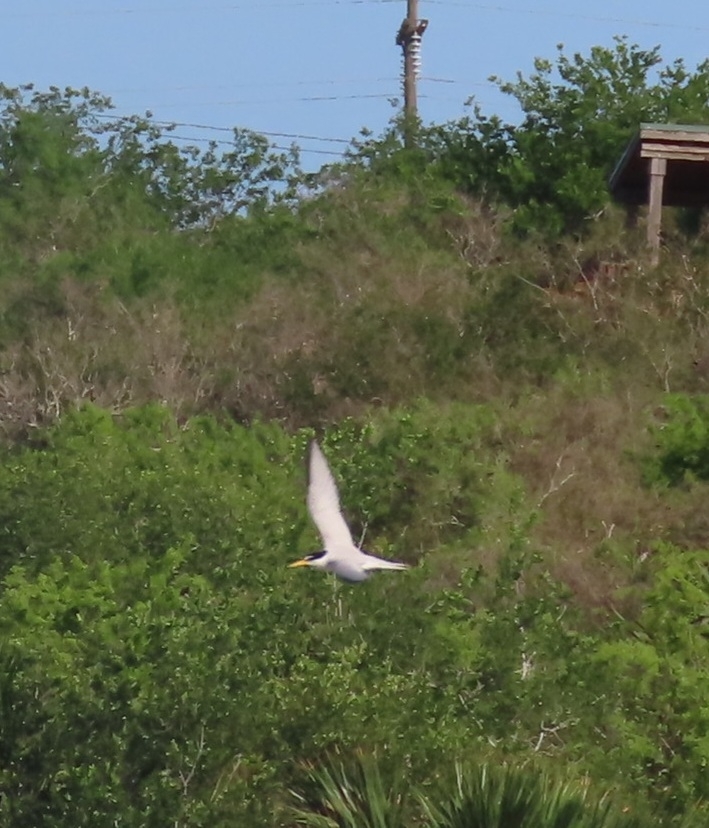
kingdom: Animalia
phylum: Chordata
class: Aves
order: Charadriiformes
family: Laridae
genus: Sternula
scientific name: Sternula antillarum
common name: Least tern
